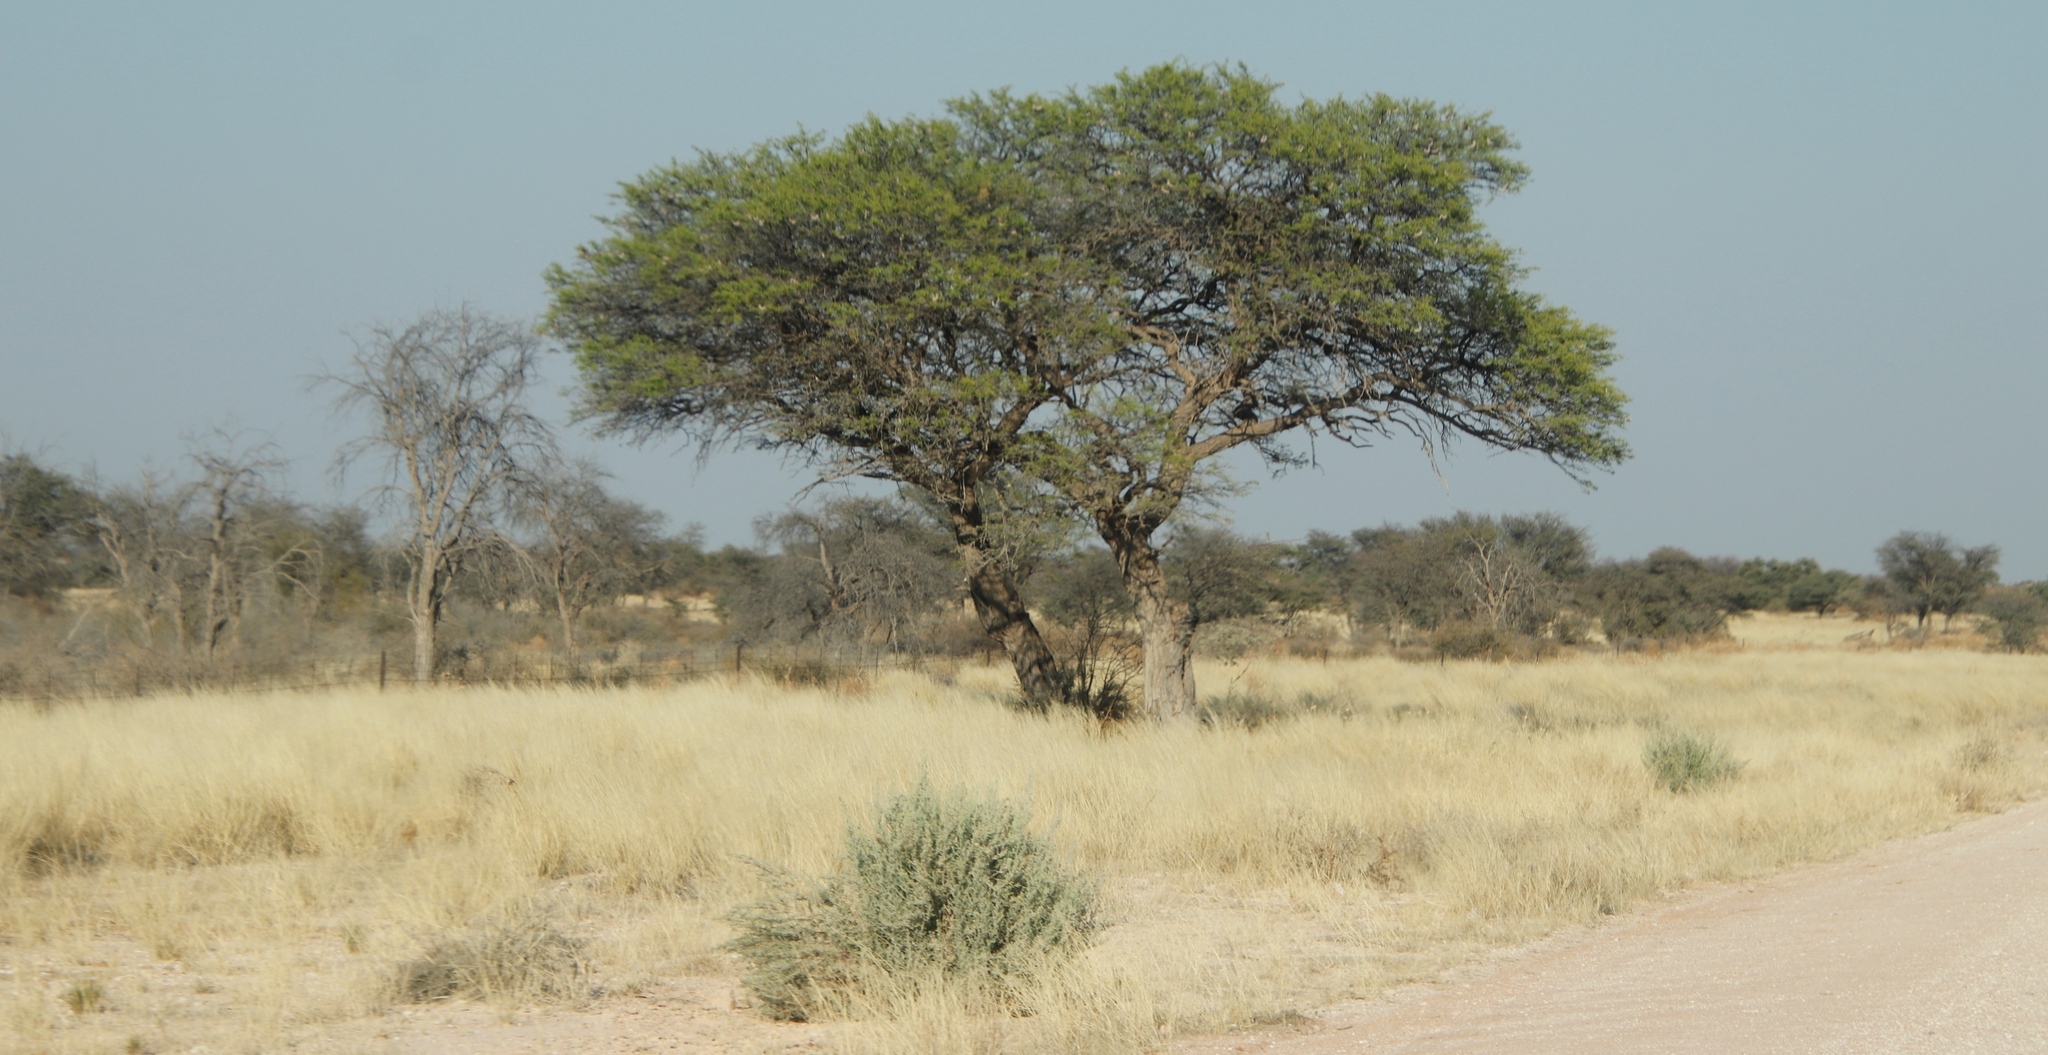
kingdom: Plantae
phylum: Tracheophyta
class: Magnoliopsida
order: Fabales
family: Fabaceae
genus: Vachellia
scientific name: Vachellia erioloba
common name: Camel thorn
